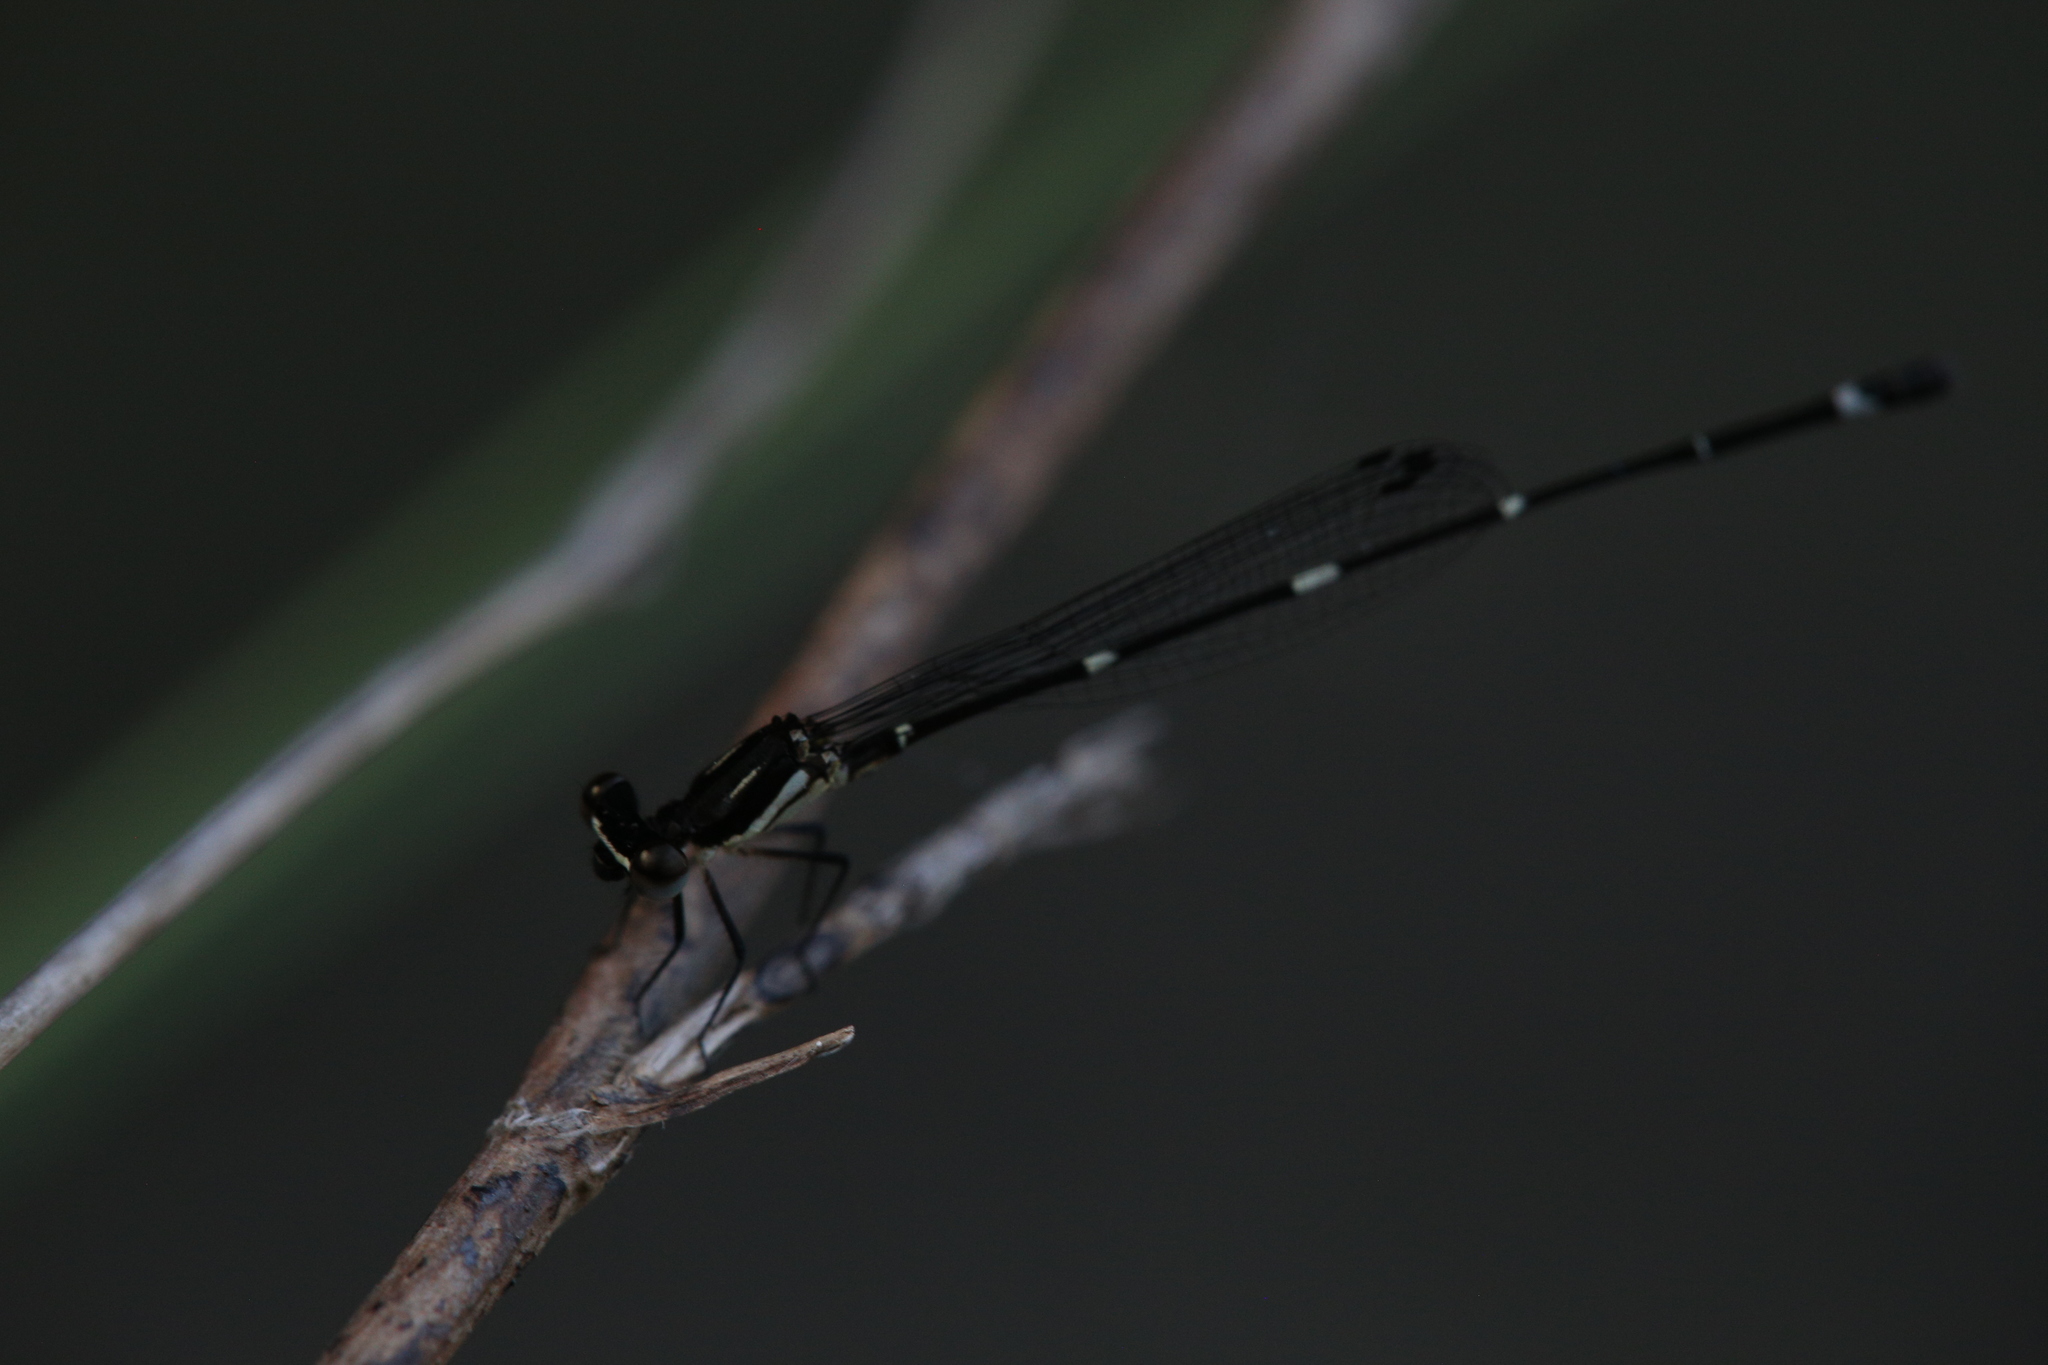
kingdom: Animalia
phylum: Arthropoda
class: Insecta
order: Odonata
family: Platycnemididae
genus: Nososticta
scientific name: Nososticta solitaria
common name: Fivespot threadtail
